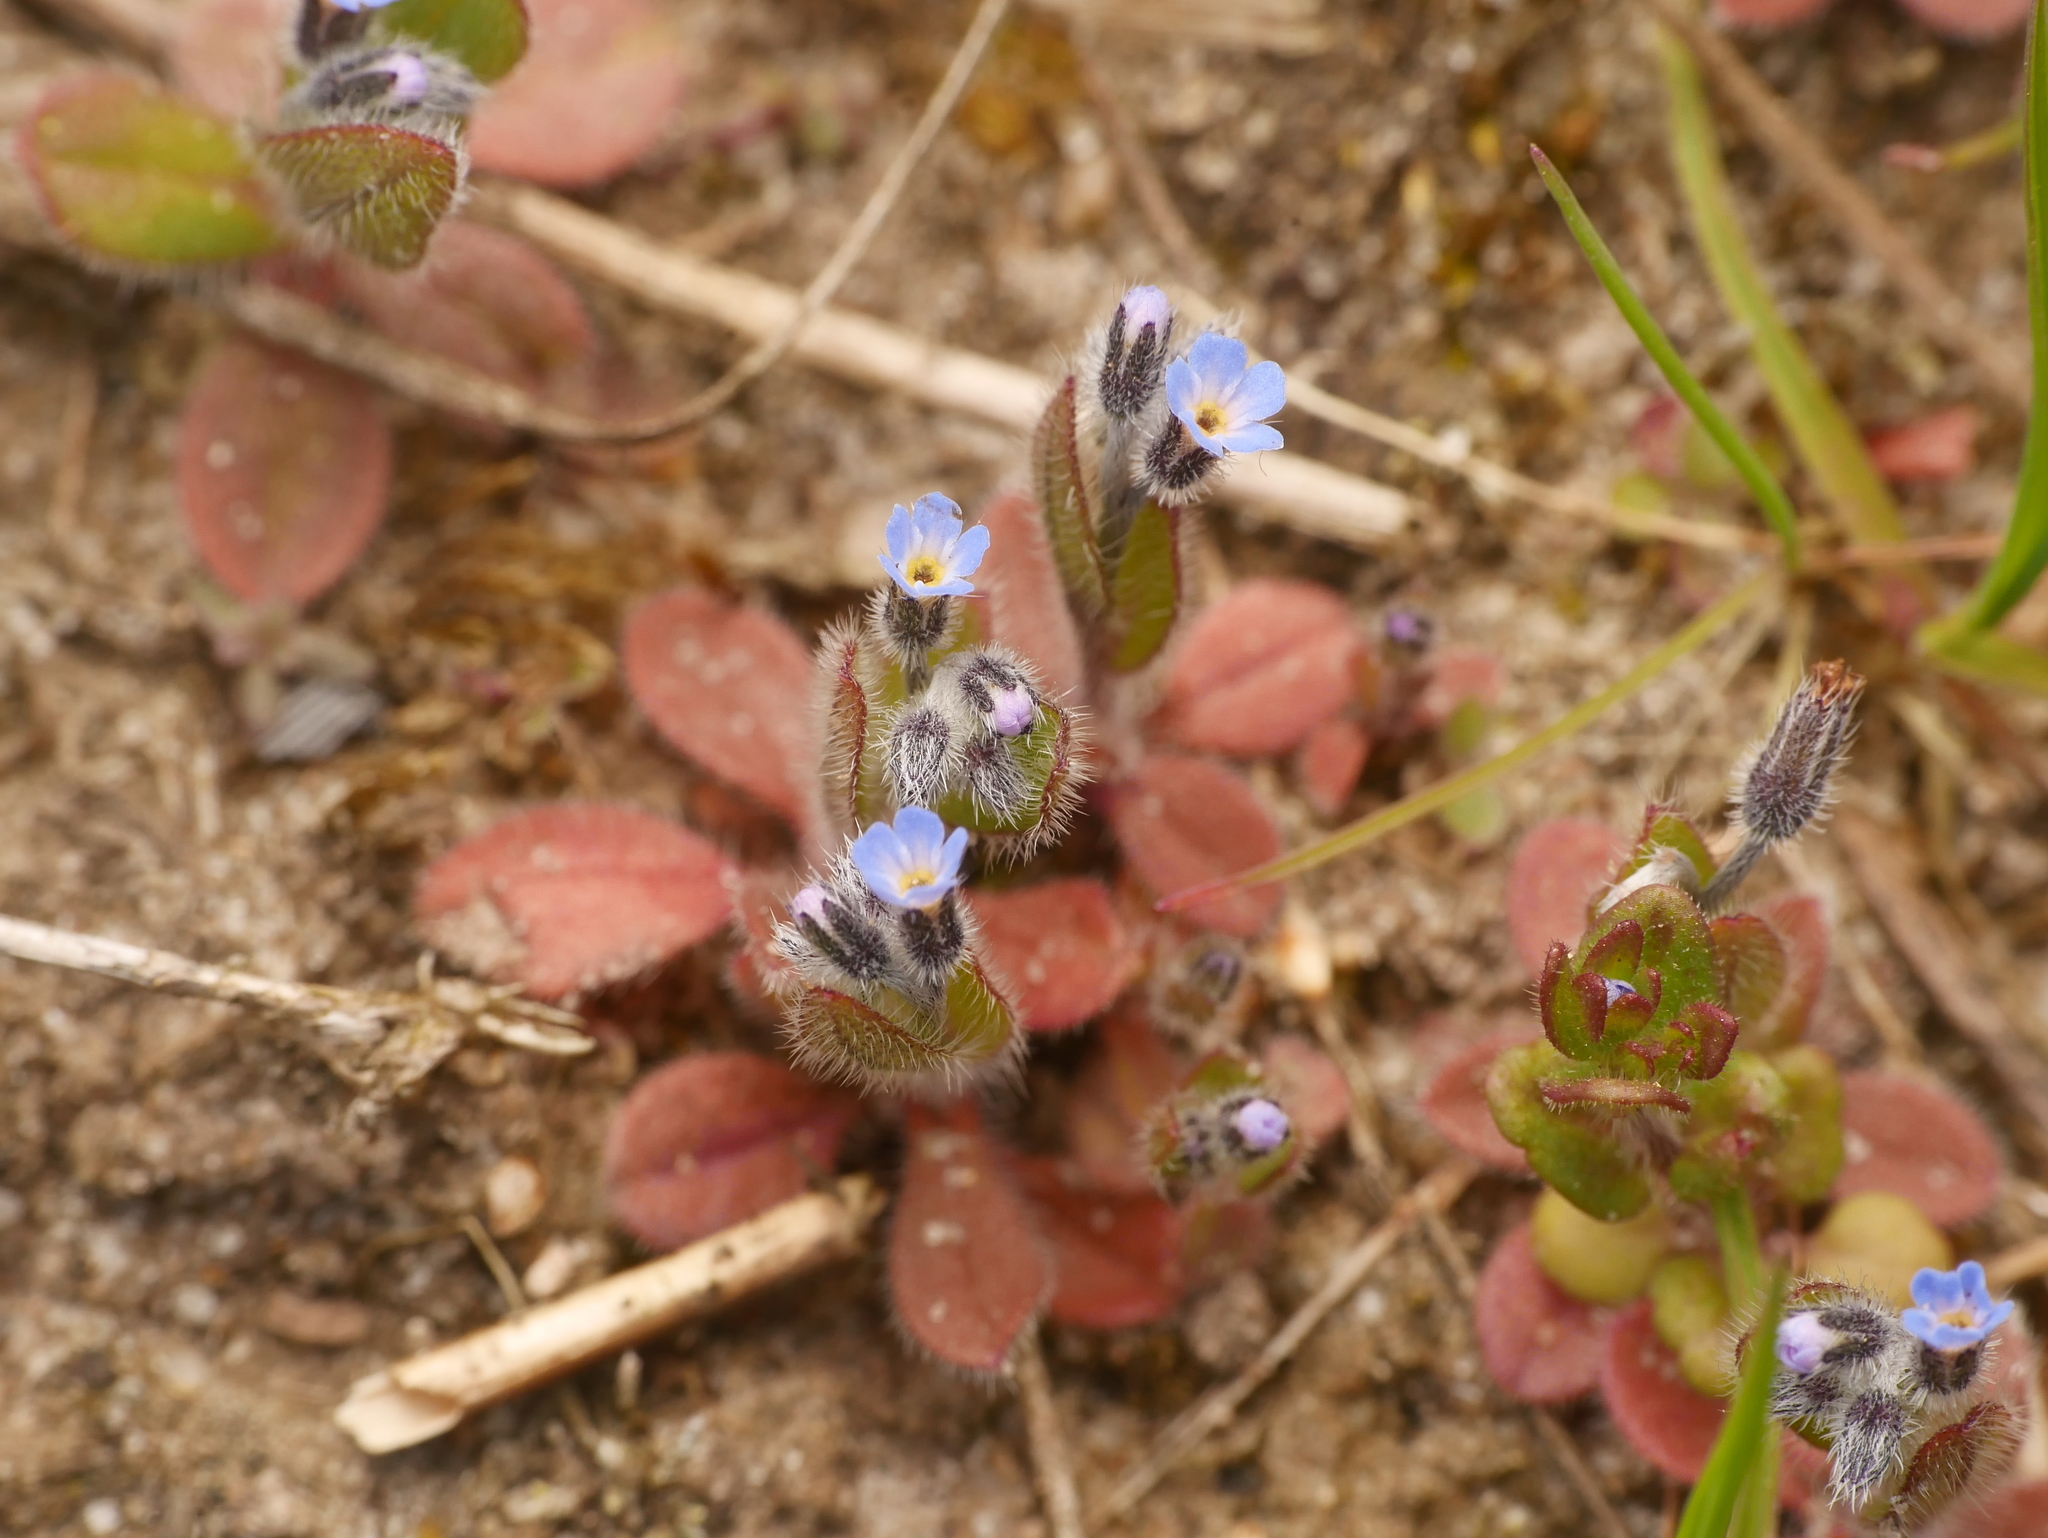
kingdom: Plantae
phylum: Tracheophyta
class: Magnoliopsida
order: Boraginales
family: Boraginaceae
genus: Myosotis
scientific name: Myosotis ramosissima
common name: Early forget-me-not
